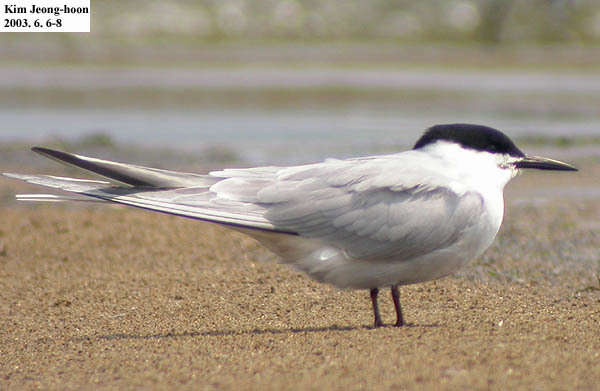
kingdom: Animalia
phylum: Chordata
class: Aves
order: Charadriiformes
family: Laridae
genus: Sterna
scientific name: Sterna hirundo
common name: Common tern
